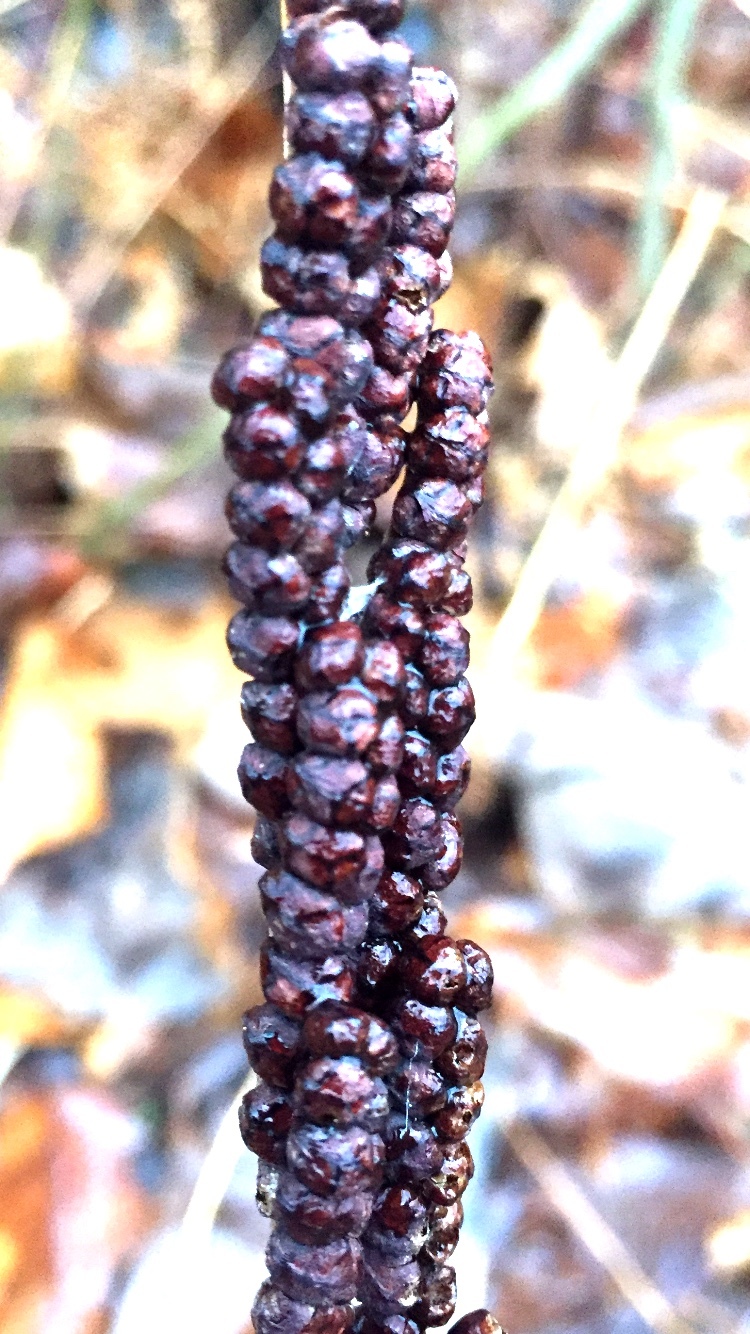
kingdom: Plantae
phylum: Tracheophyta
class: Polypodiopsida
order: Polypodiales
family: Onocleaceae
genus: Onoclea
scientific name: Onoclea sensibilis
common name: Sensitive fern
